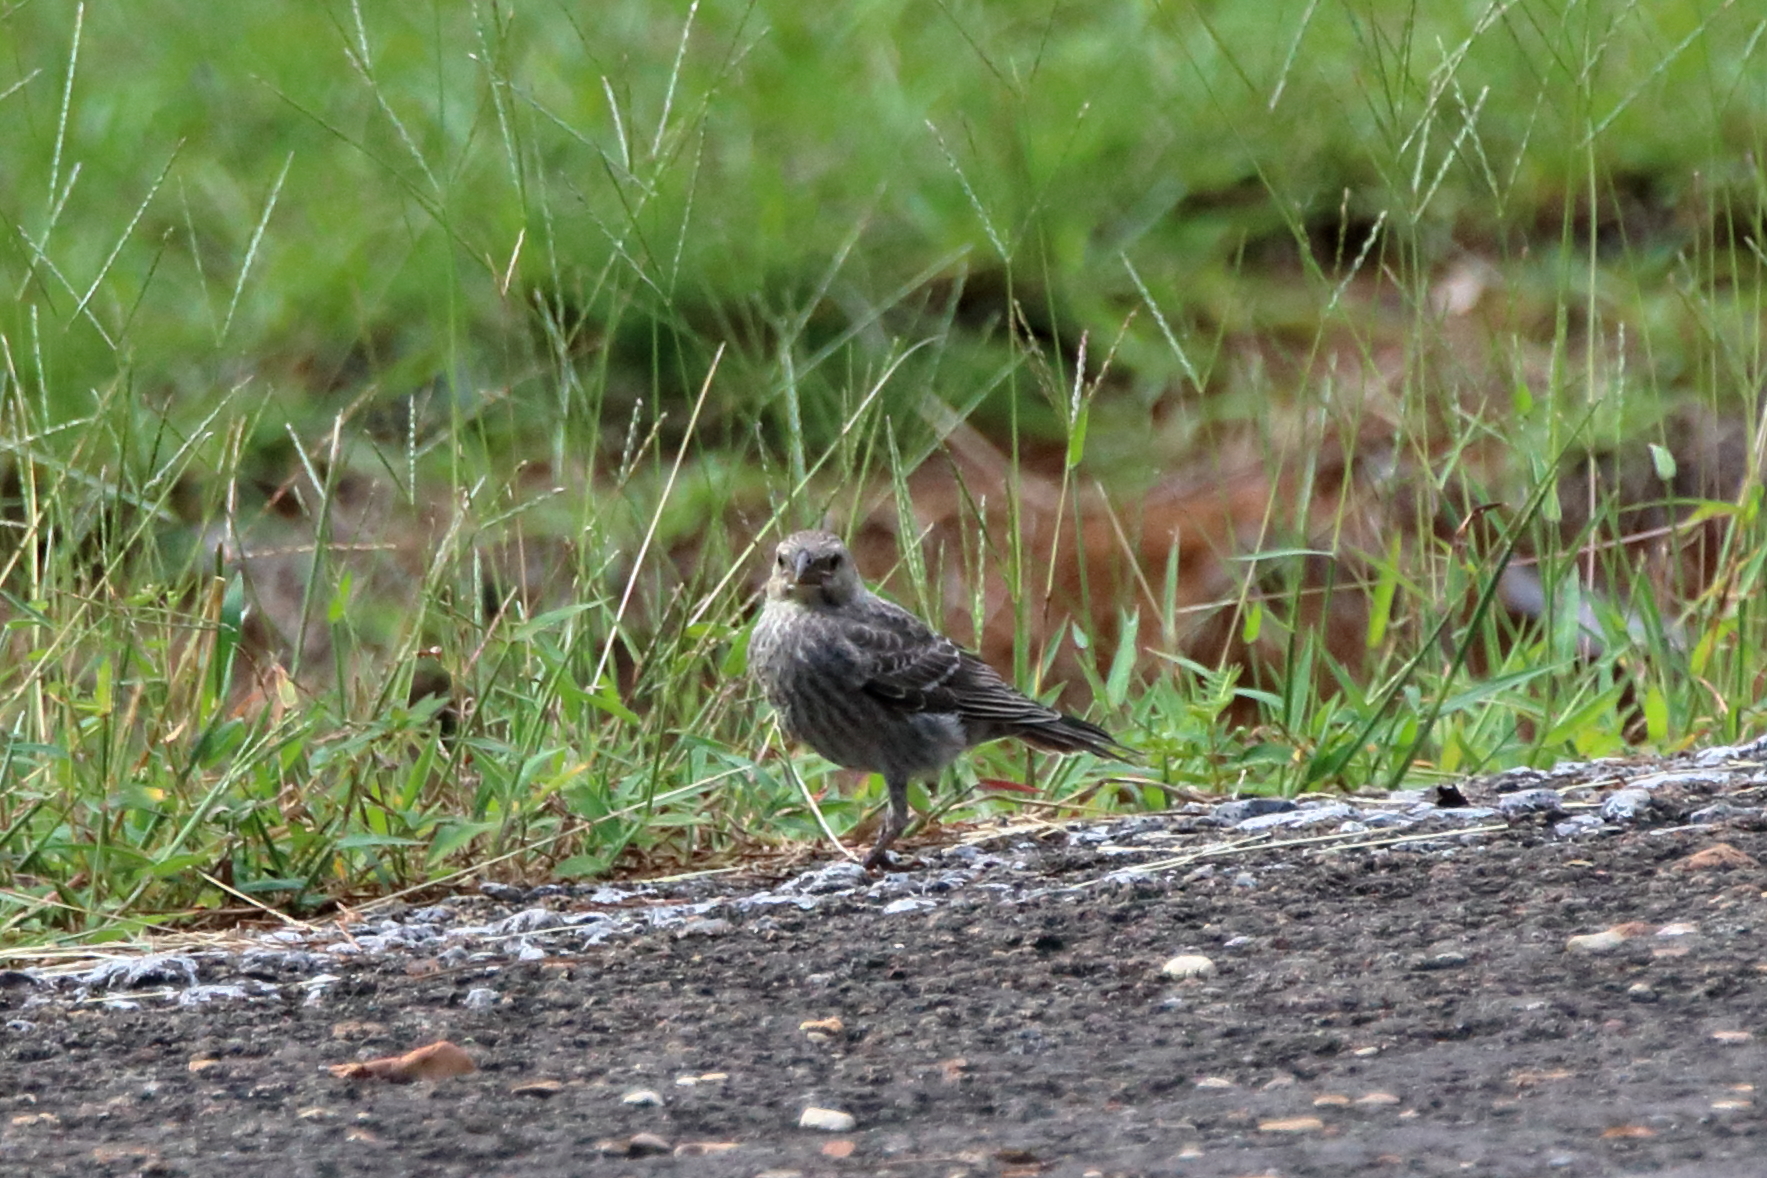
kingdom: Animalia
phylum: Chordata
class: Aves
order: Passeriformes
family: Icteridae
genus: Molothrus
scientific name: Molothrus ater
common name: Brown-headed cowbird
